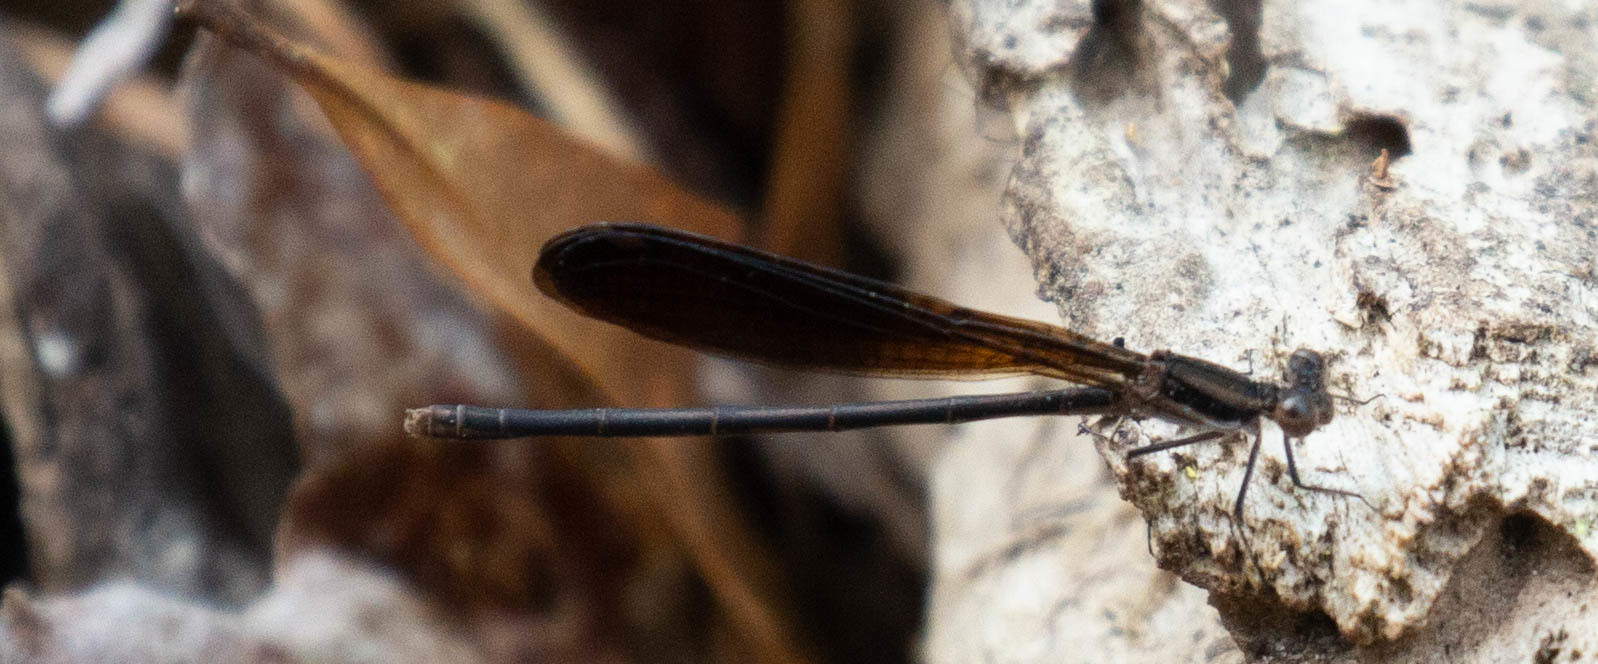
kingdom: Animalia
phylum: Arthropoda
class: Insecta
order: Odonata
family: Coenagrionidae
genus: Argia
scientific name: Argia fumipennis
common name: Variable dancer
